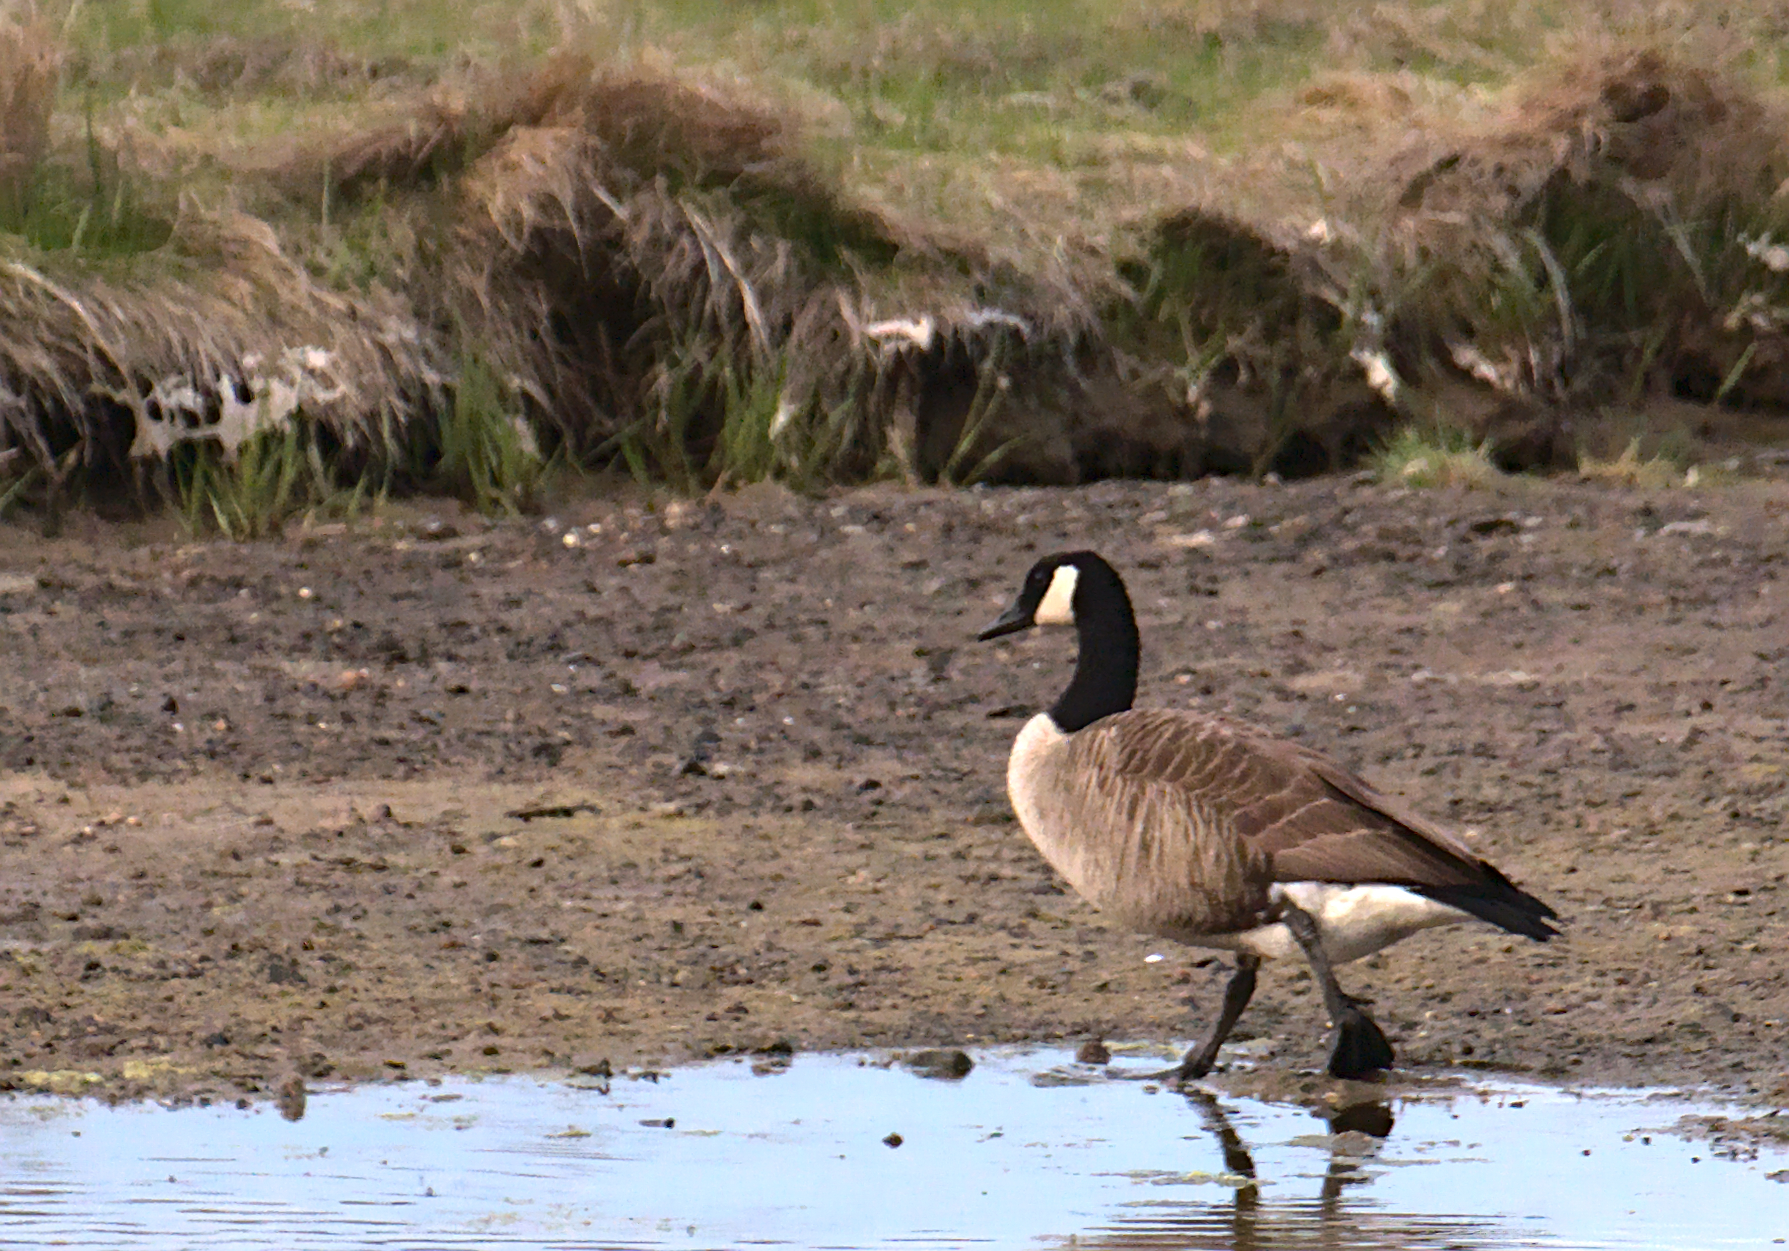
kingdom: Animalia
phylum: Chordata
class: Aves
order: Anseriformes
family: Anatidae
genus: Branta
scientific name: Branta canadensis
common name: Canada goose
